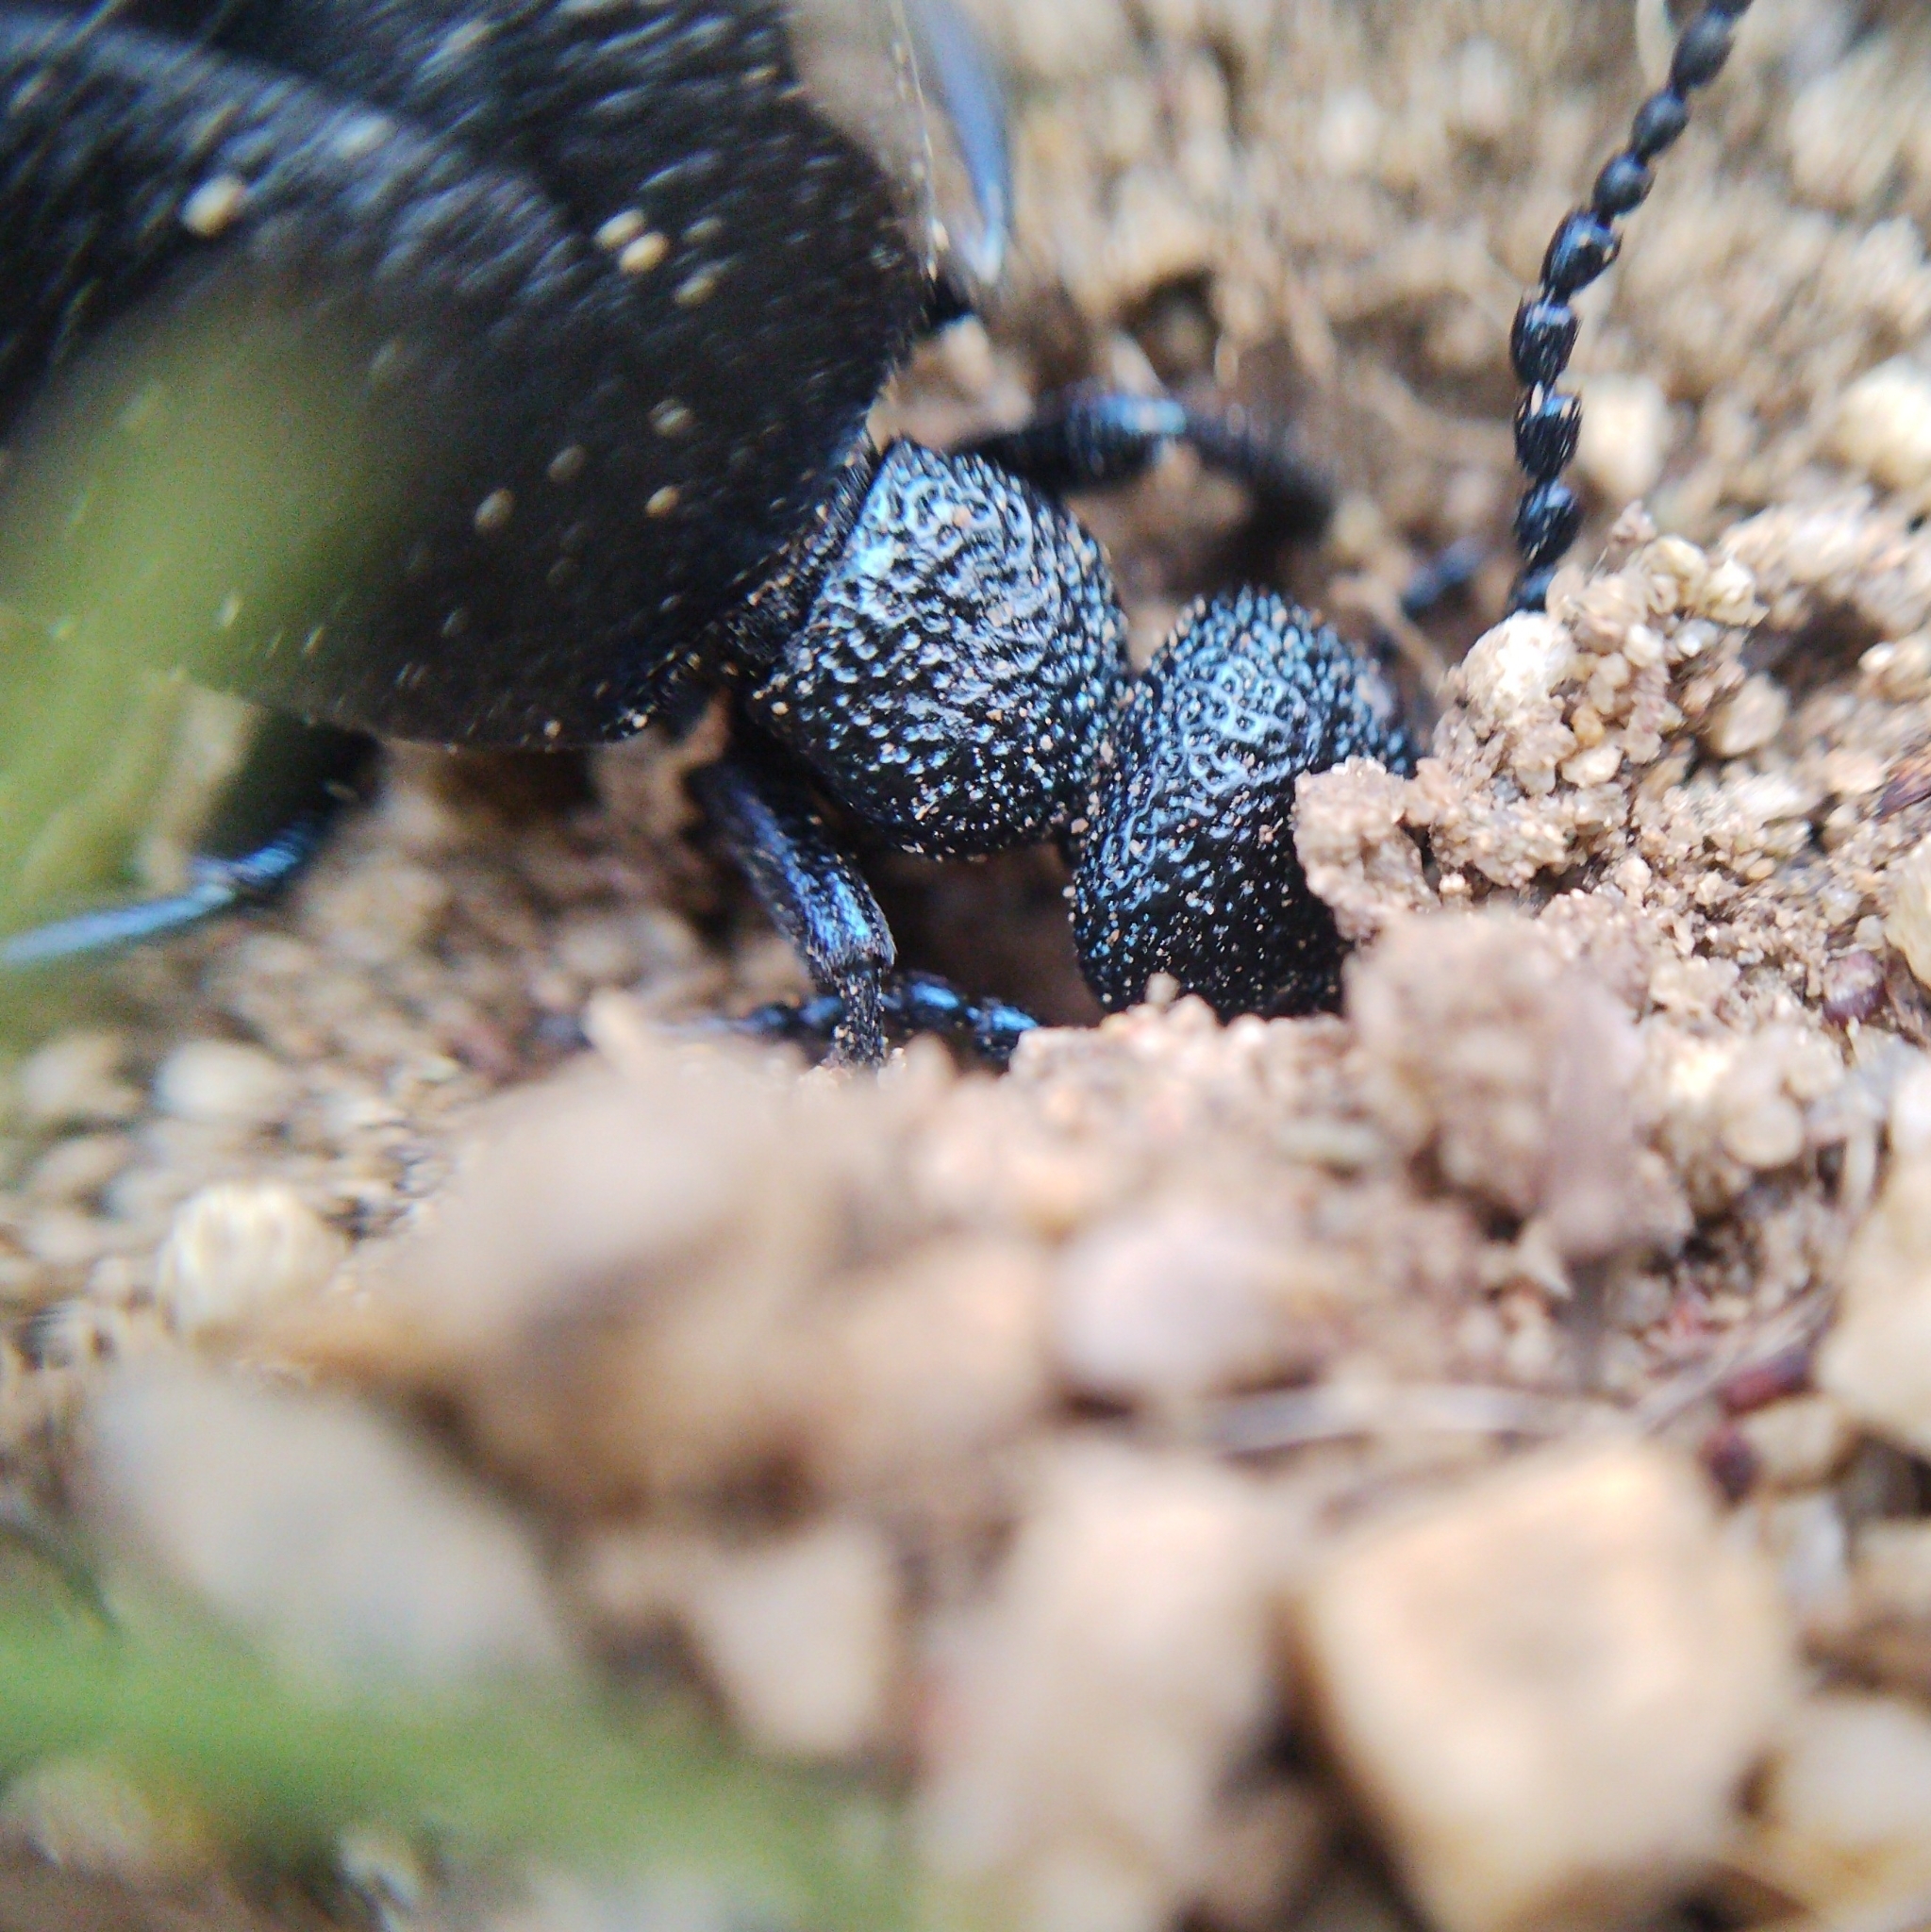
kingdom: Animalia
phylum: Arthropoda
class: Insecta
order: Coleoptera
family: Meloidae
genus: Meloe
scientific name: Meloe proscarabaeus
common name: Black oil-beetle
